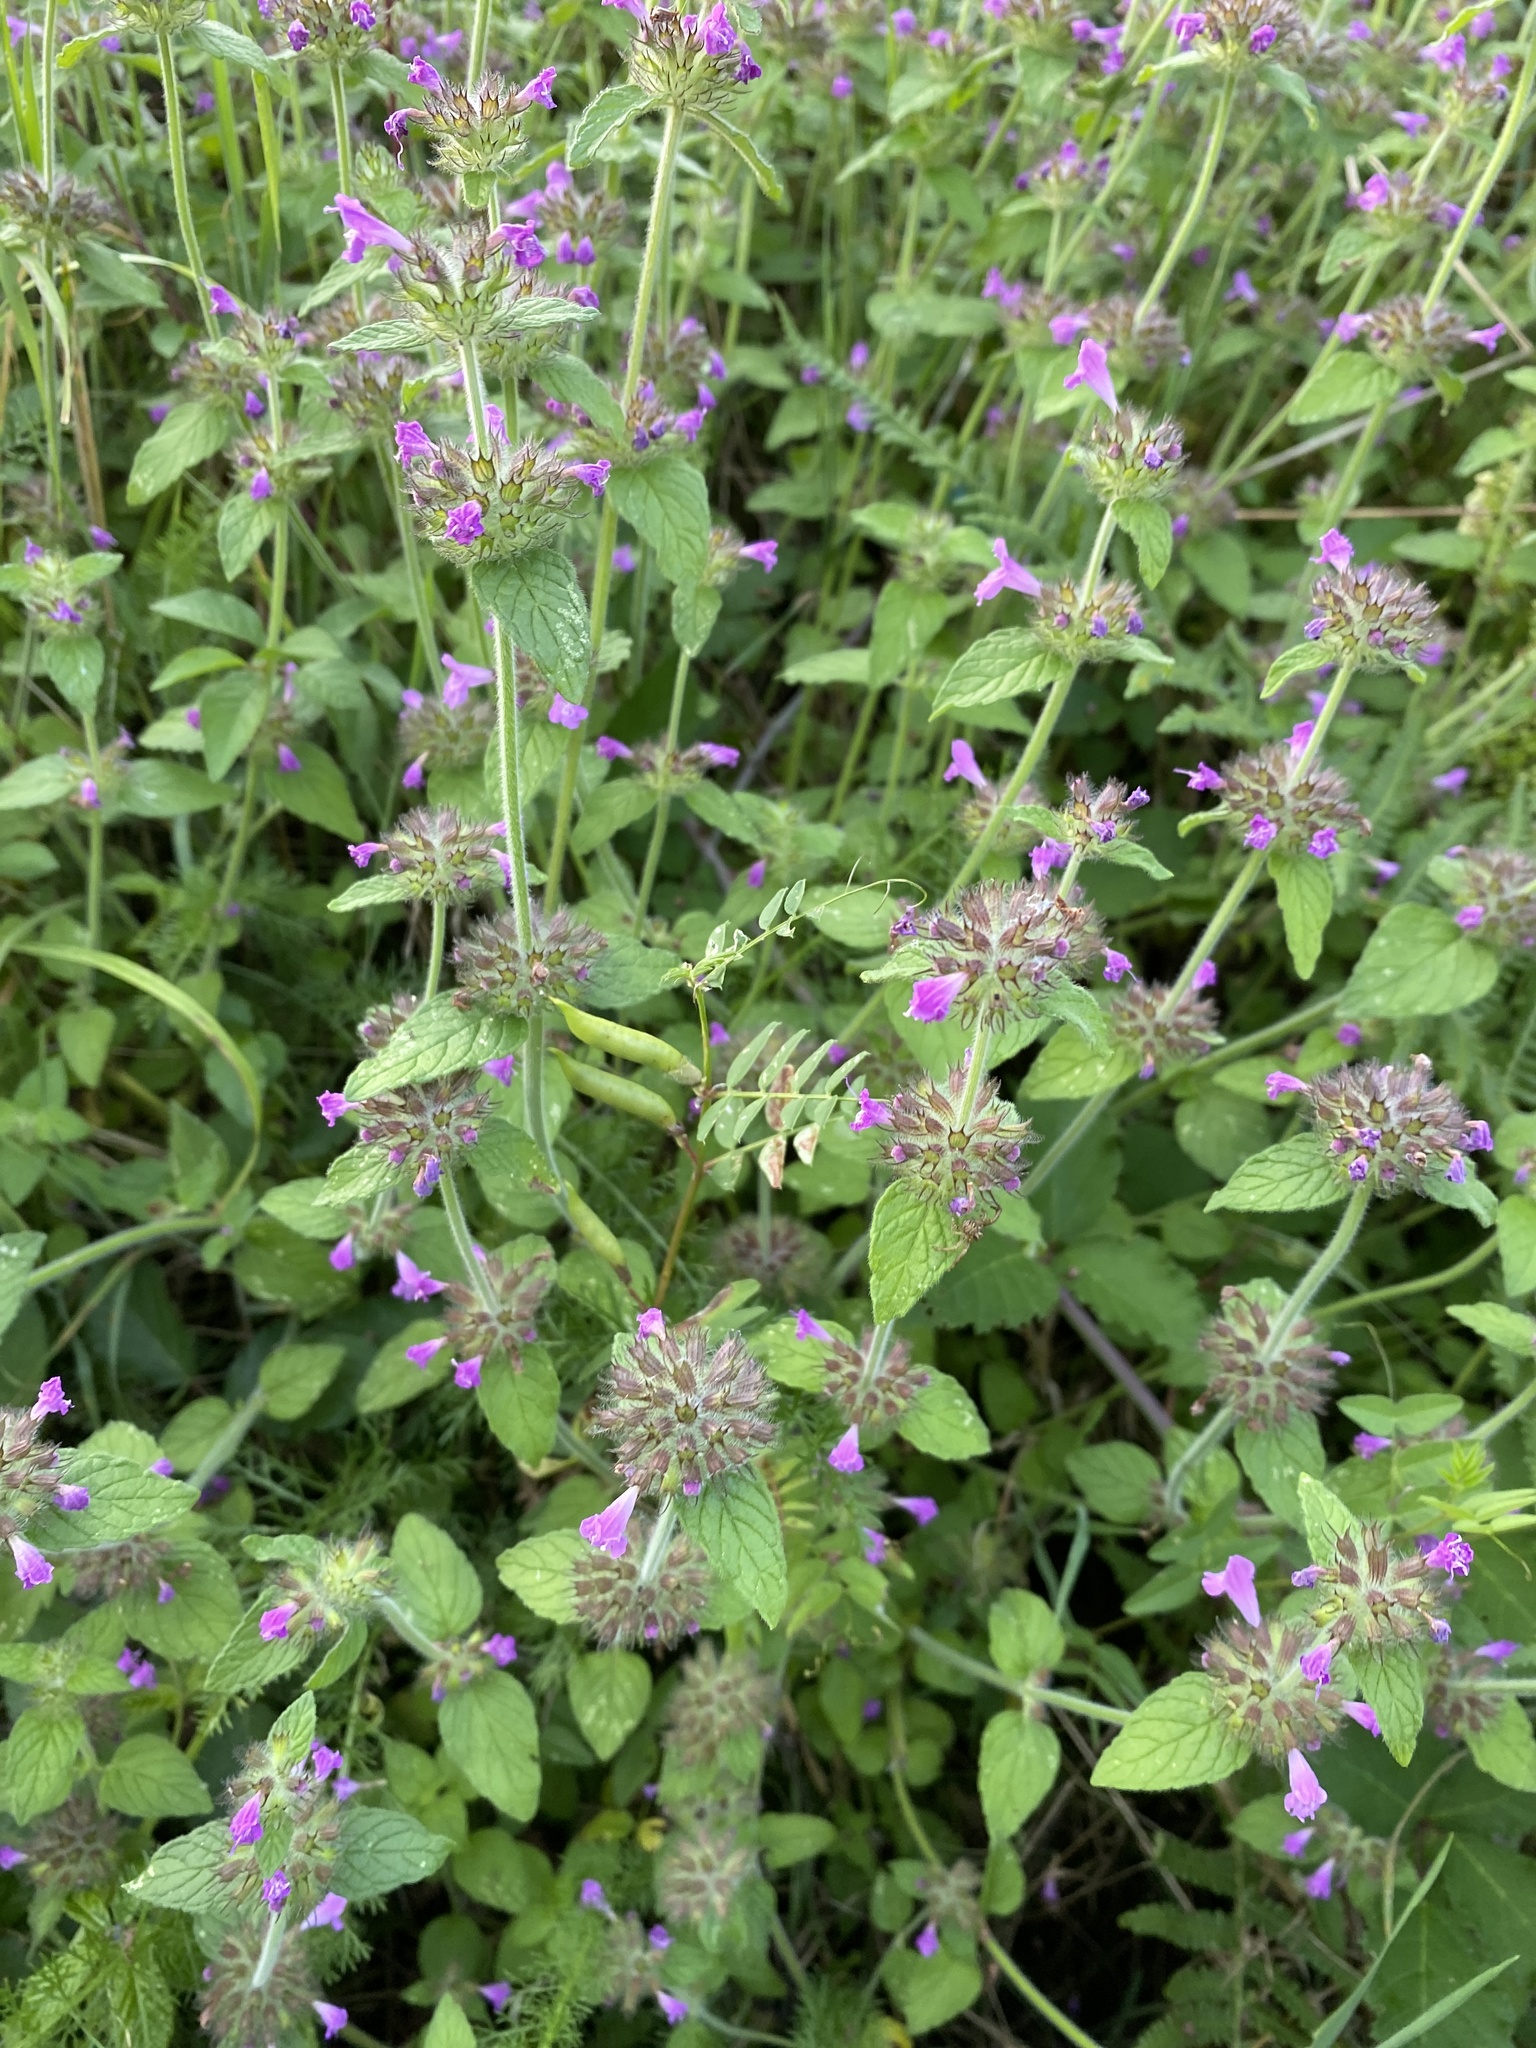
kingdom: Plantae
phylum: Tracheophyta
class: Magnoliopsida
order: Lamiales
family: Lamiaceae
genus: Clinopodium
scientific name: Clinopodium vulgare
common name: Wild basil
